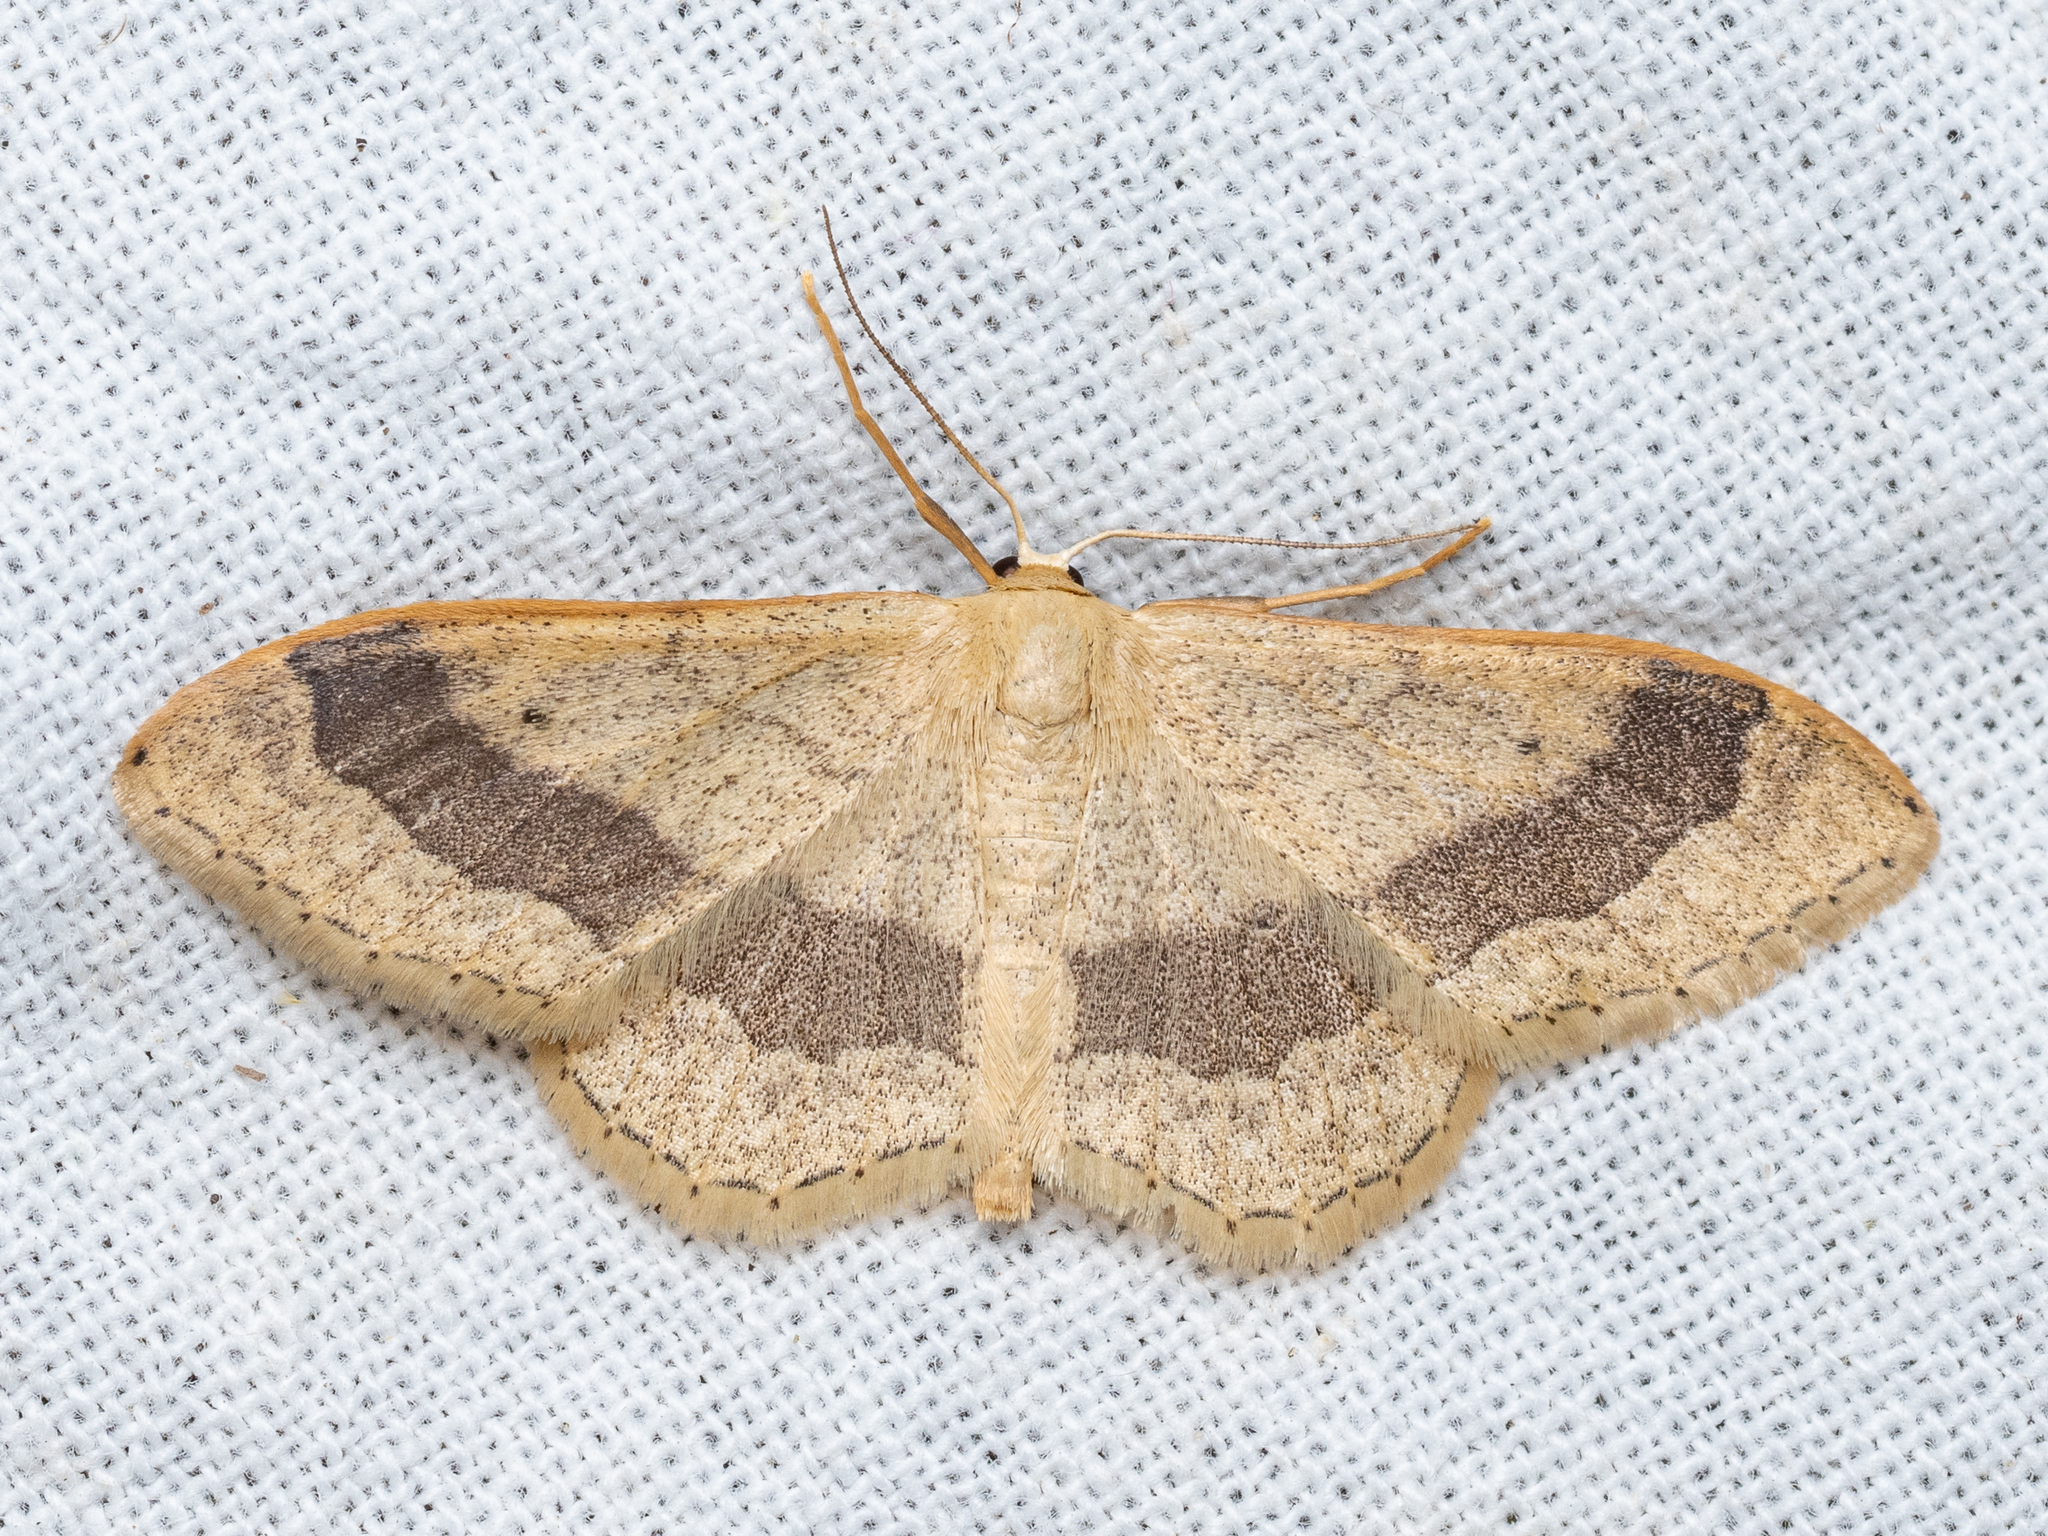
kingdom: Animalia
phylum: Arthropoda
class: Insecta
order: Lepidoptera
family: Geometridae
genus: Idaea
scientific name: Idaea aversata
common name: Riband wave
